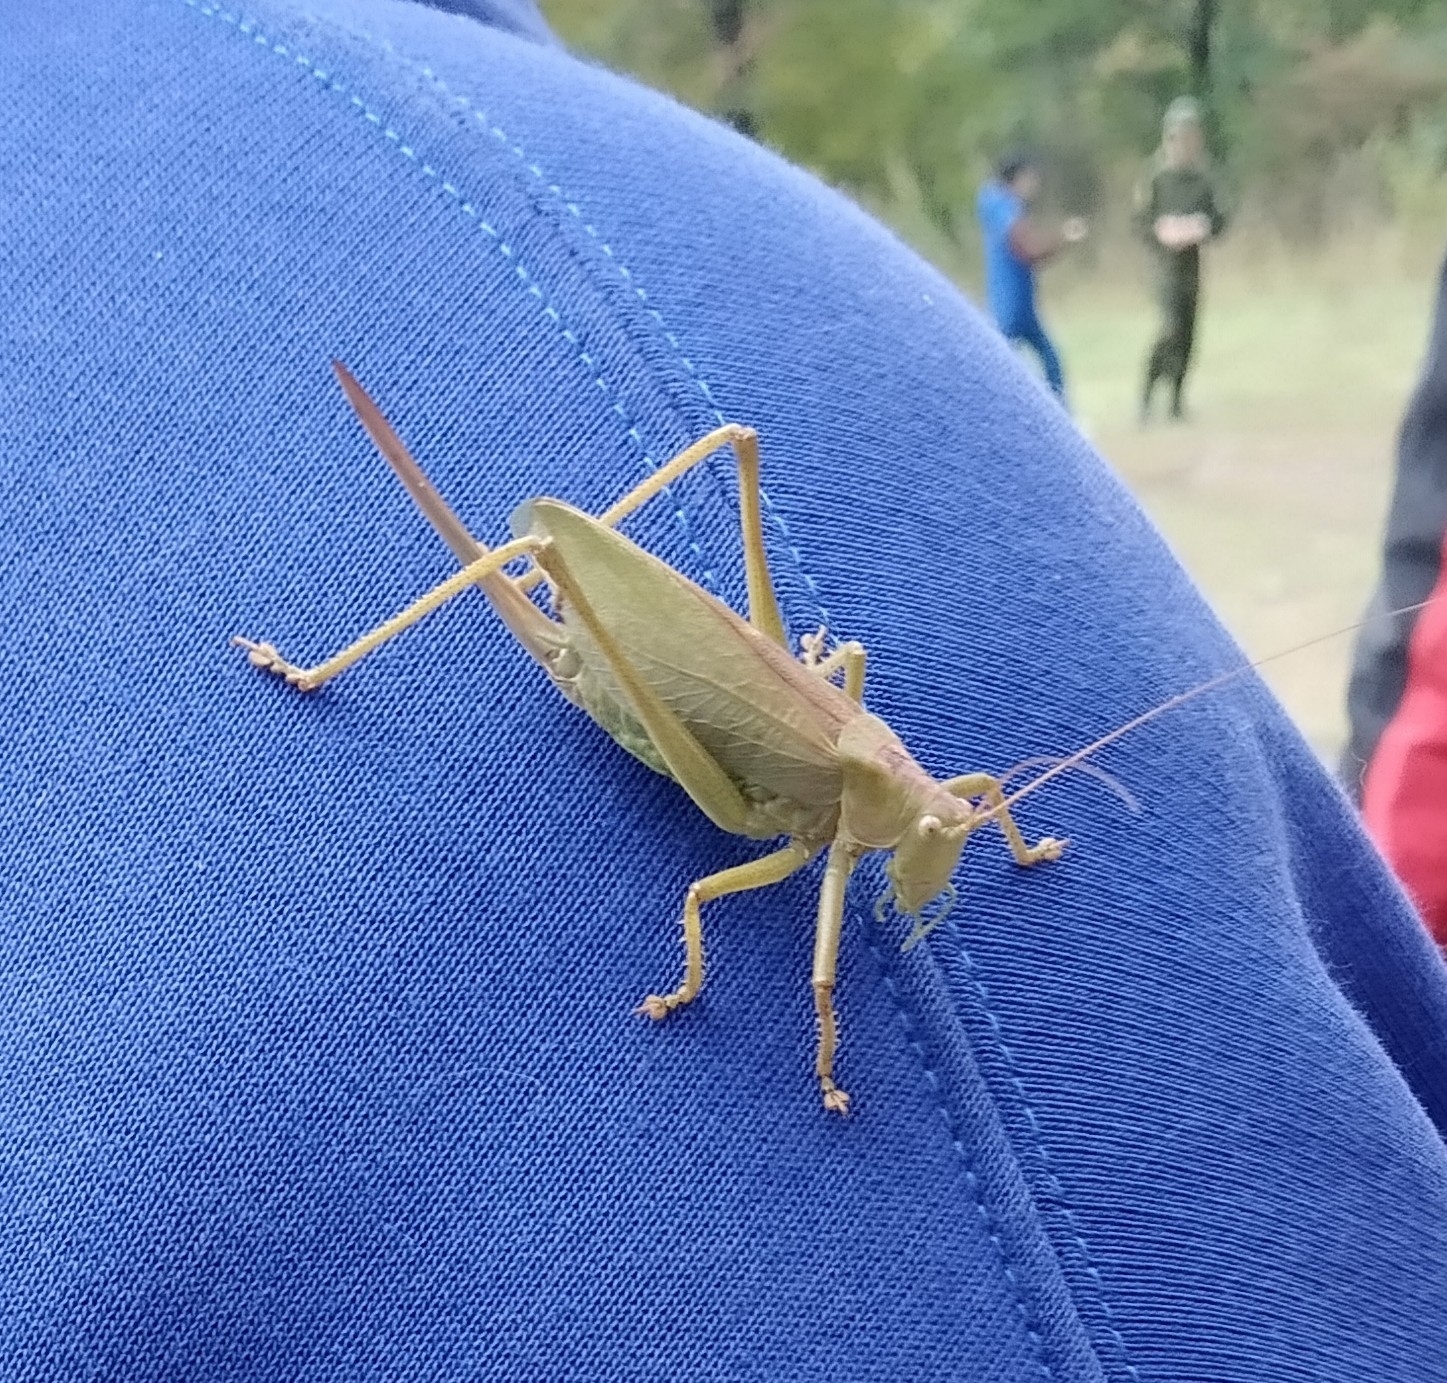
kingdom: Animalia
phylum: Arthropoda
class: Insecta
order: Orthoptera
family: Tettigoniidae
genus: Tettigonia
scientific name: Tettigonia cantans
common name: Upland green bush-cricket
